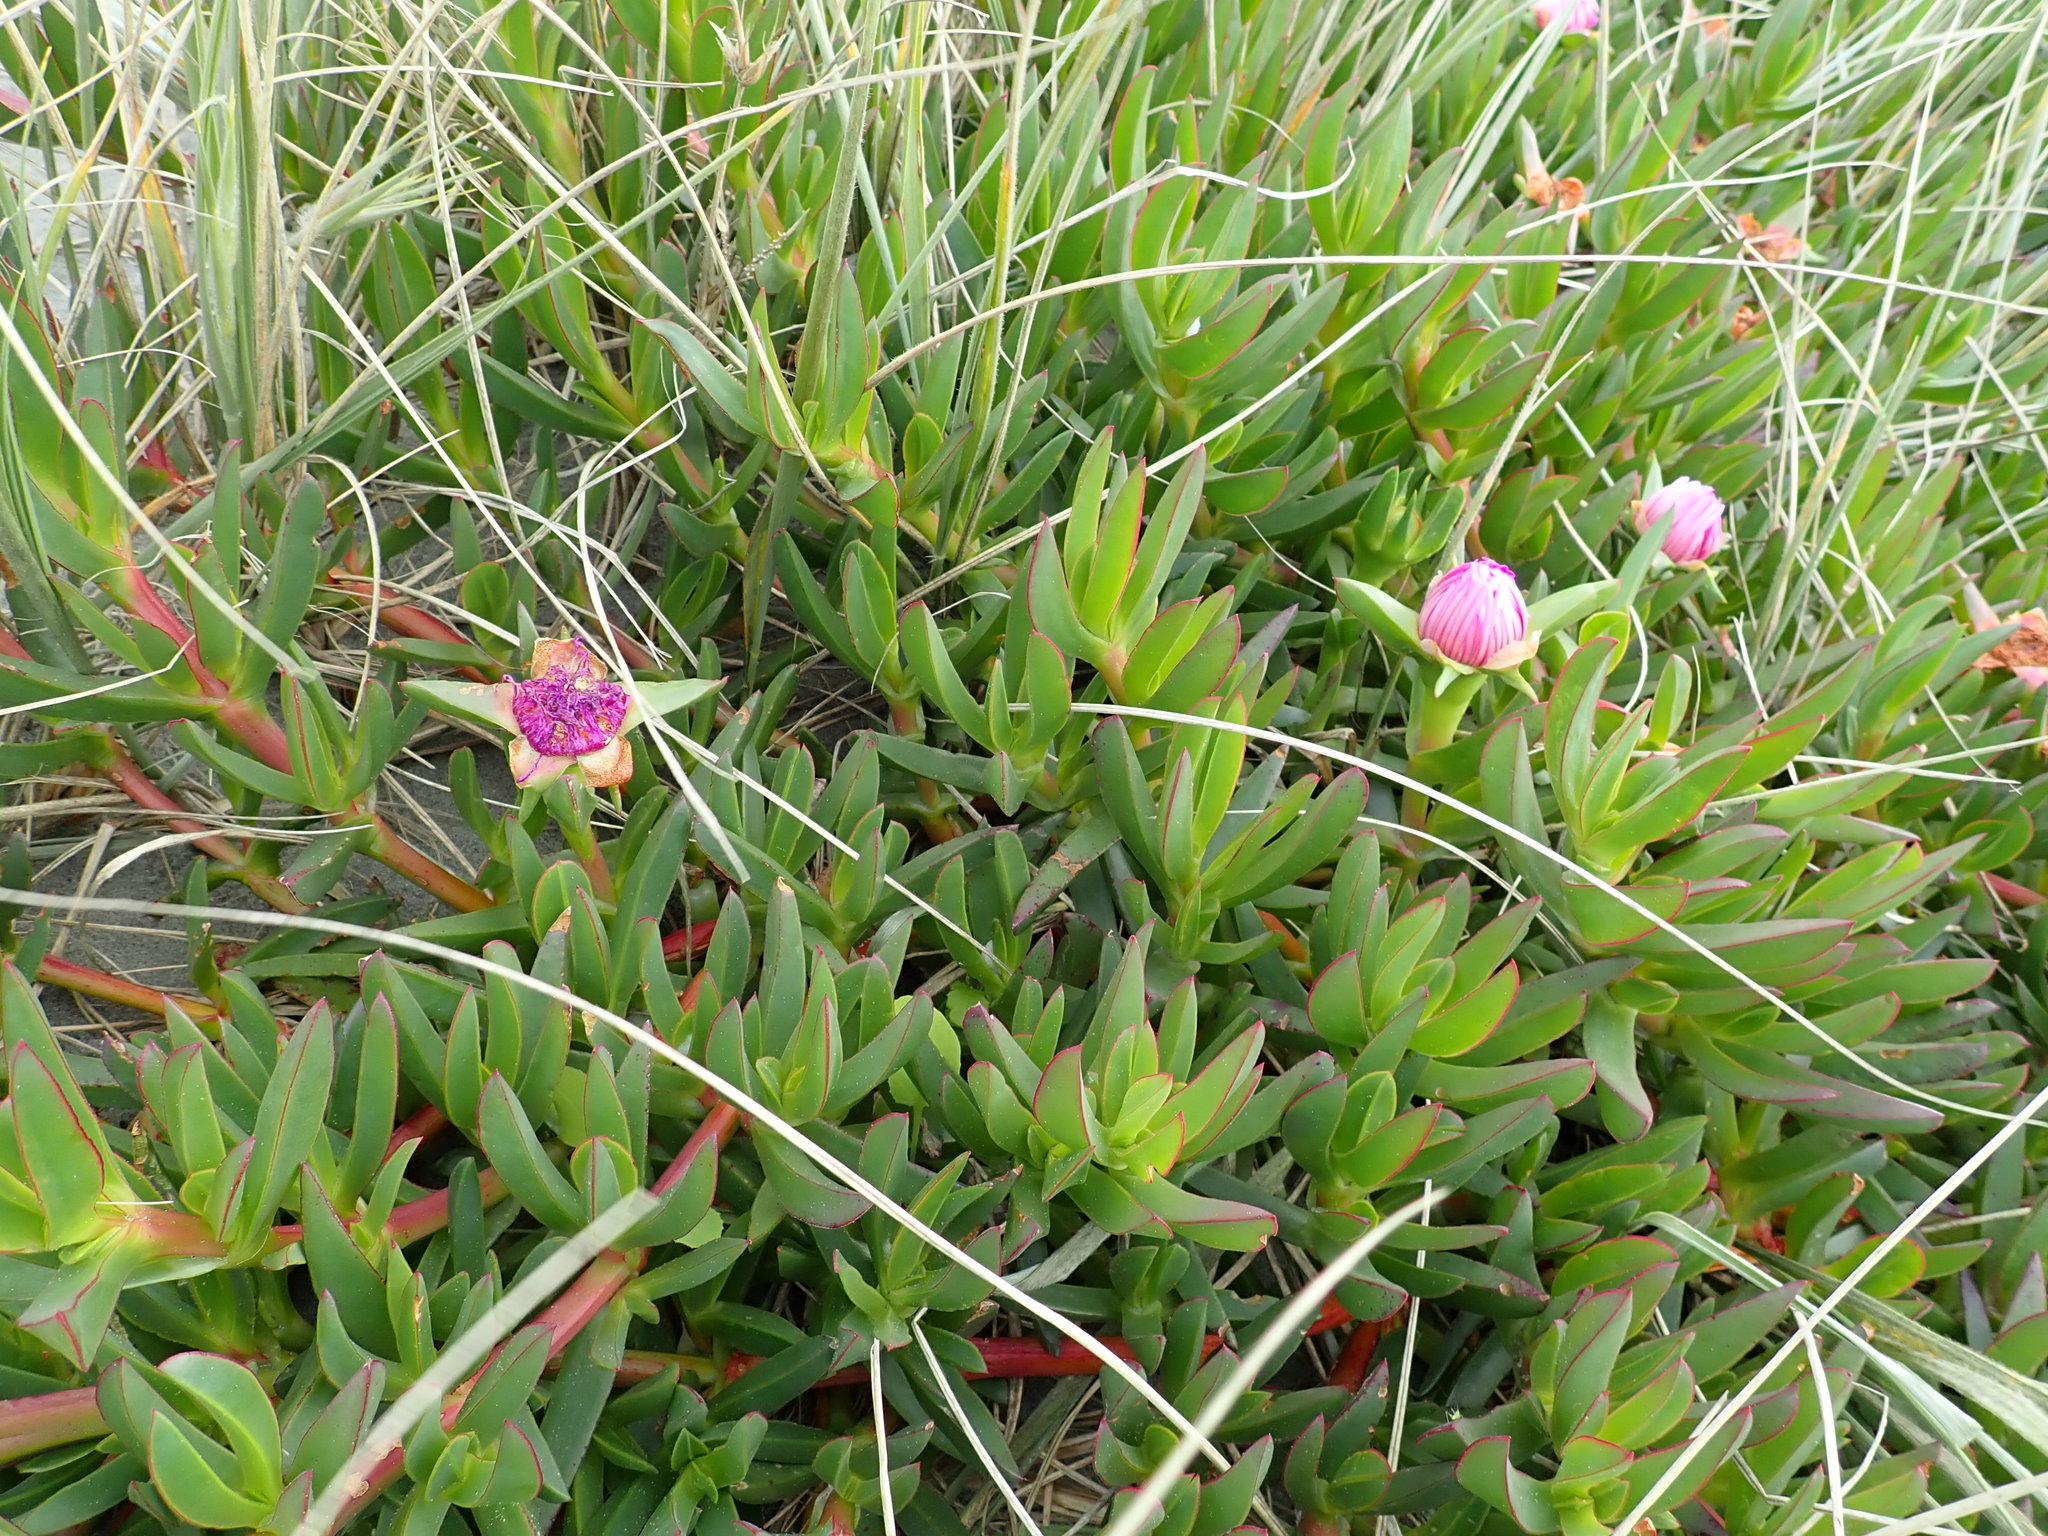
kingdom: Plantae
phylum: Tracheophyta
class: Magnoliopsida
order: Caryophyllales
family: Aizoaceae
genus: Carpobrotus
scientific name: Carpobrotus chilensis
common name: Sea fig
